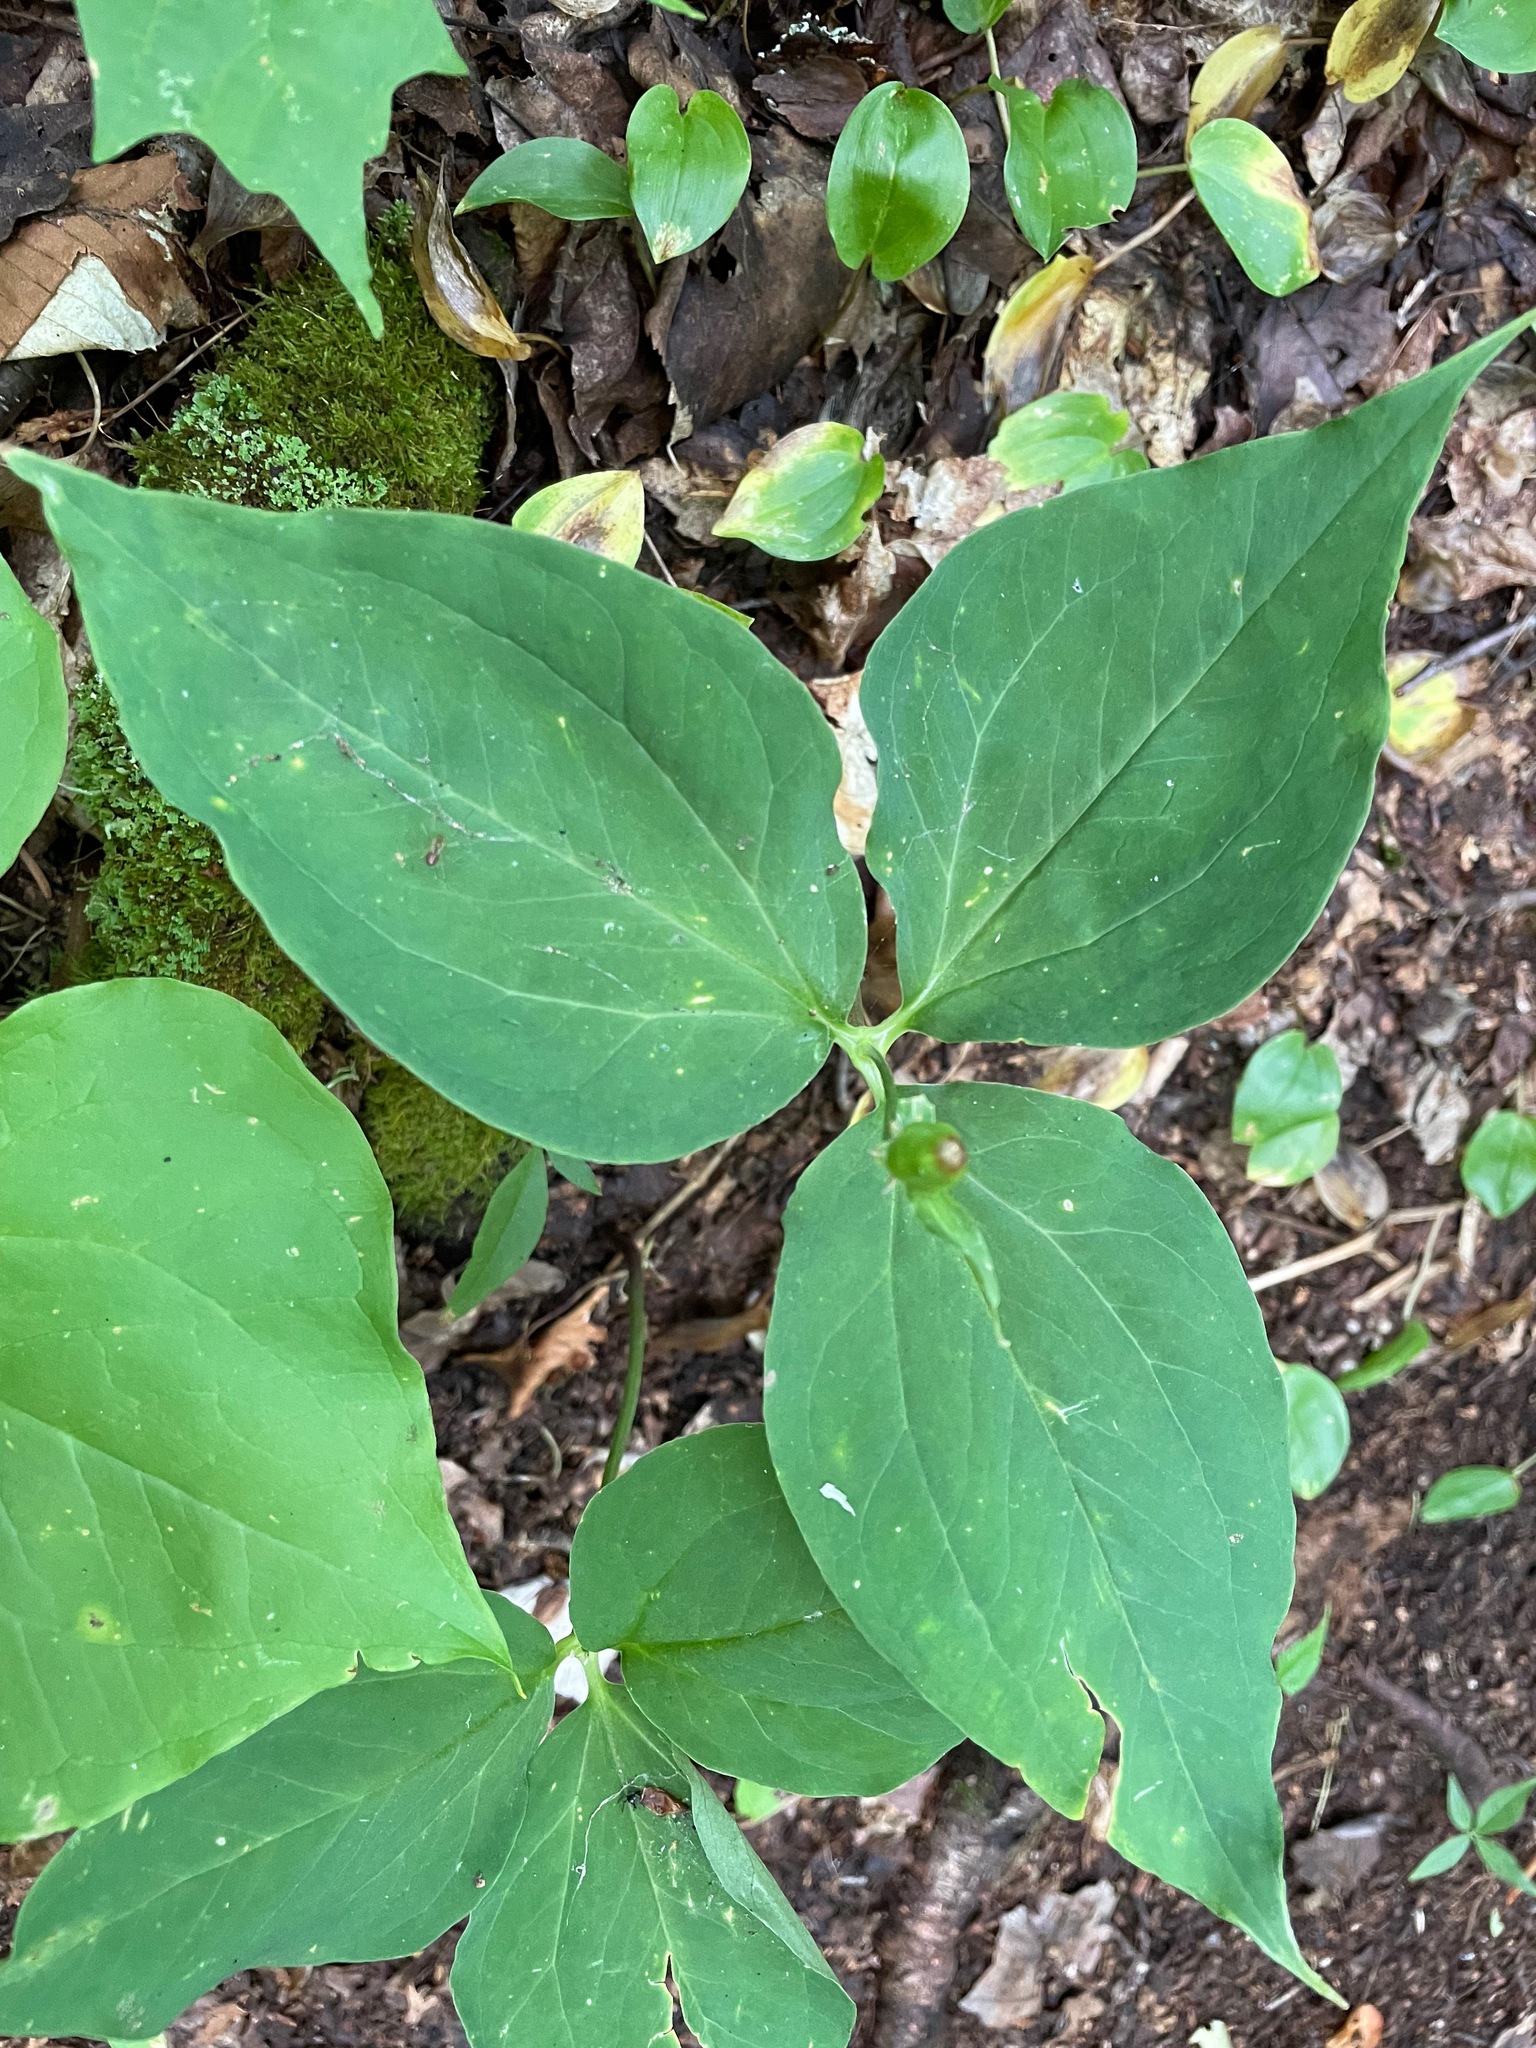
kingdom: Plantae
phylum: Tracheophyta
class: Liliopsida
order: Liliales
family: Melanthiaceae
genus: Trillium
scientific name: Trillium undulatum
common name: Paint trillium
